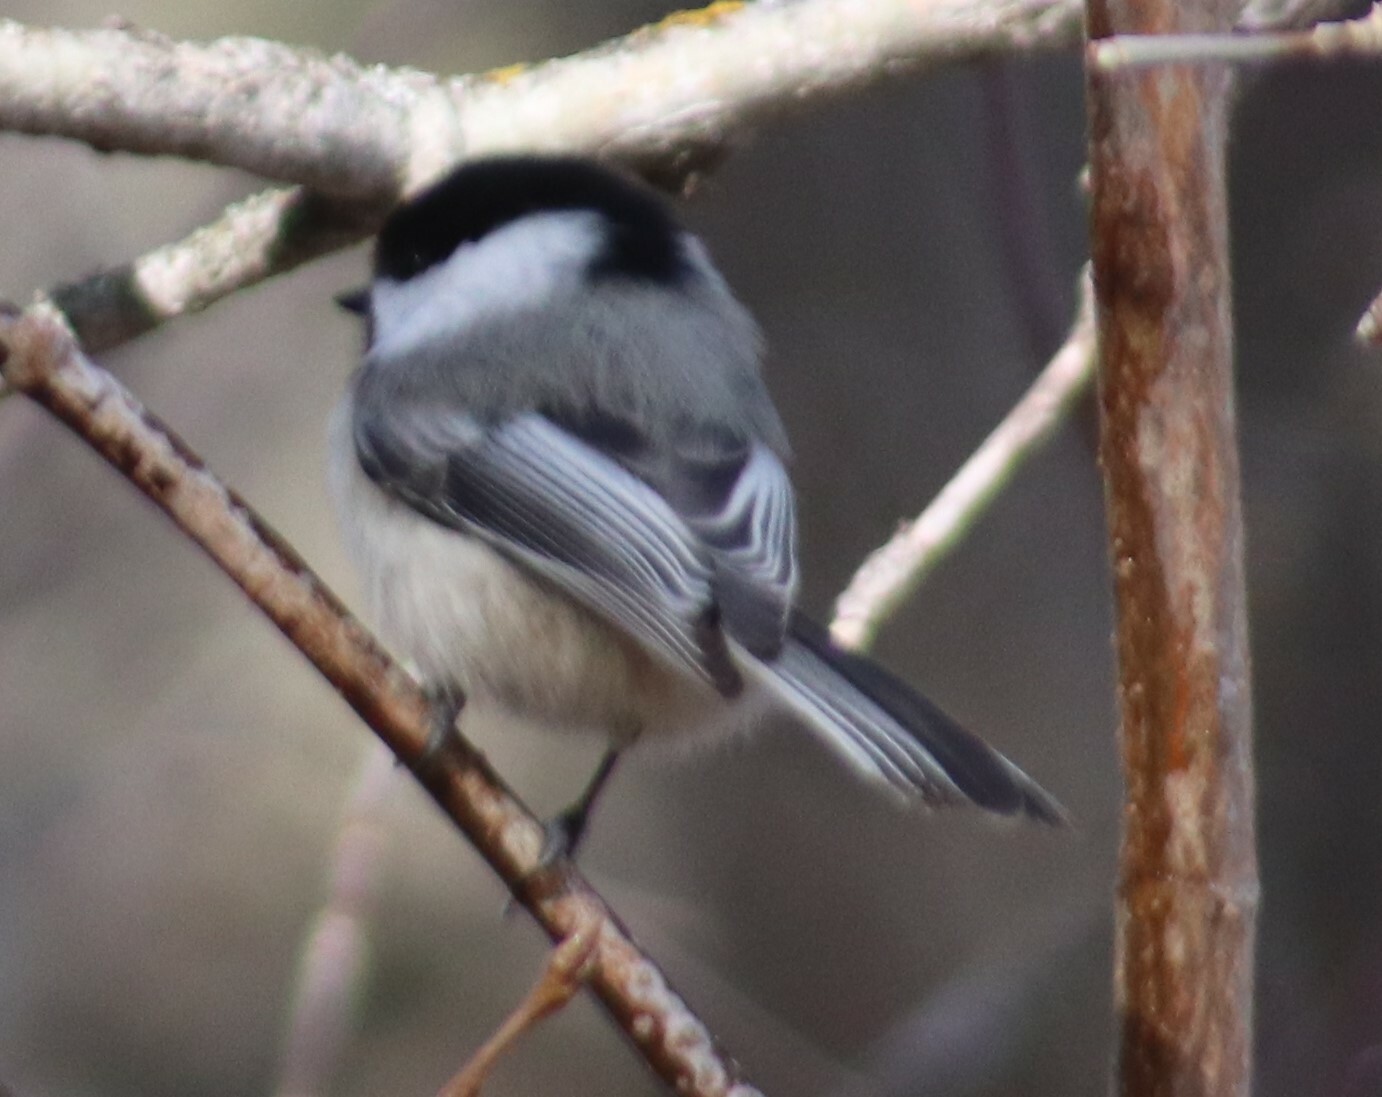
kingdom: Animalia
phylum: Chordata
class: Aves
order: Passeriformes
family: Paridae
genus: Poecile
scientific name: Poecile atricapillus
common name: Black-capped chickadee
